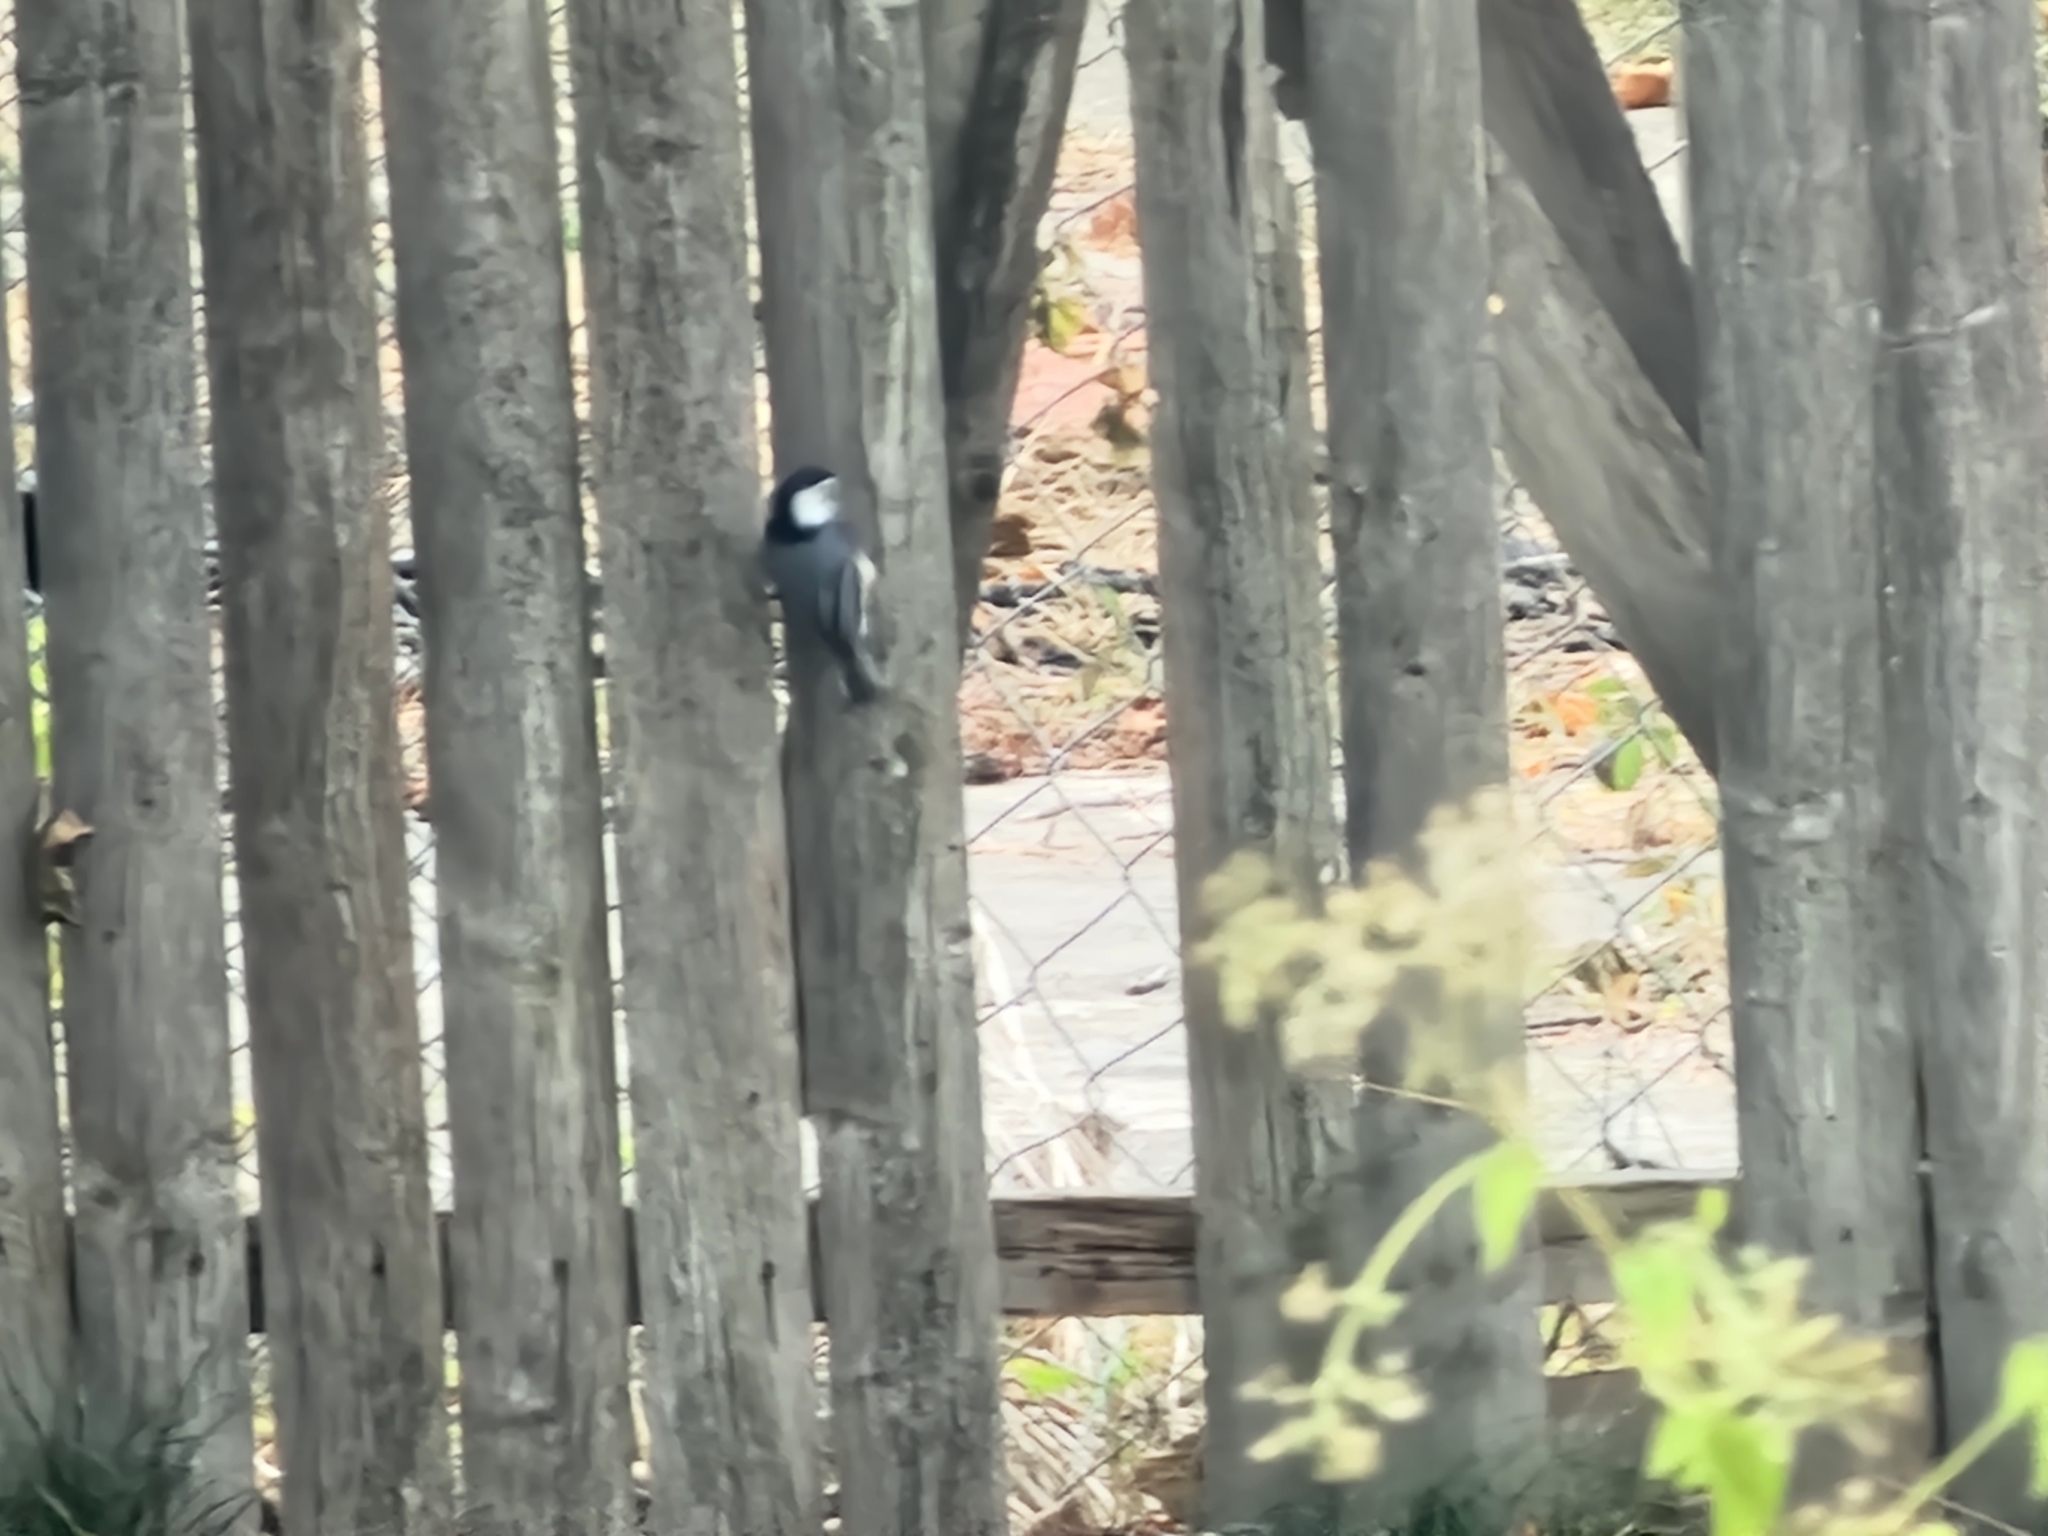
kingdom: Animalia
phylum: Chordata
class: Aves
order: Passeriformes
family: Sittidae
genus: Sitta
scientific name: Sitta carolinensis
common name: White-breasted nuthatch
